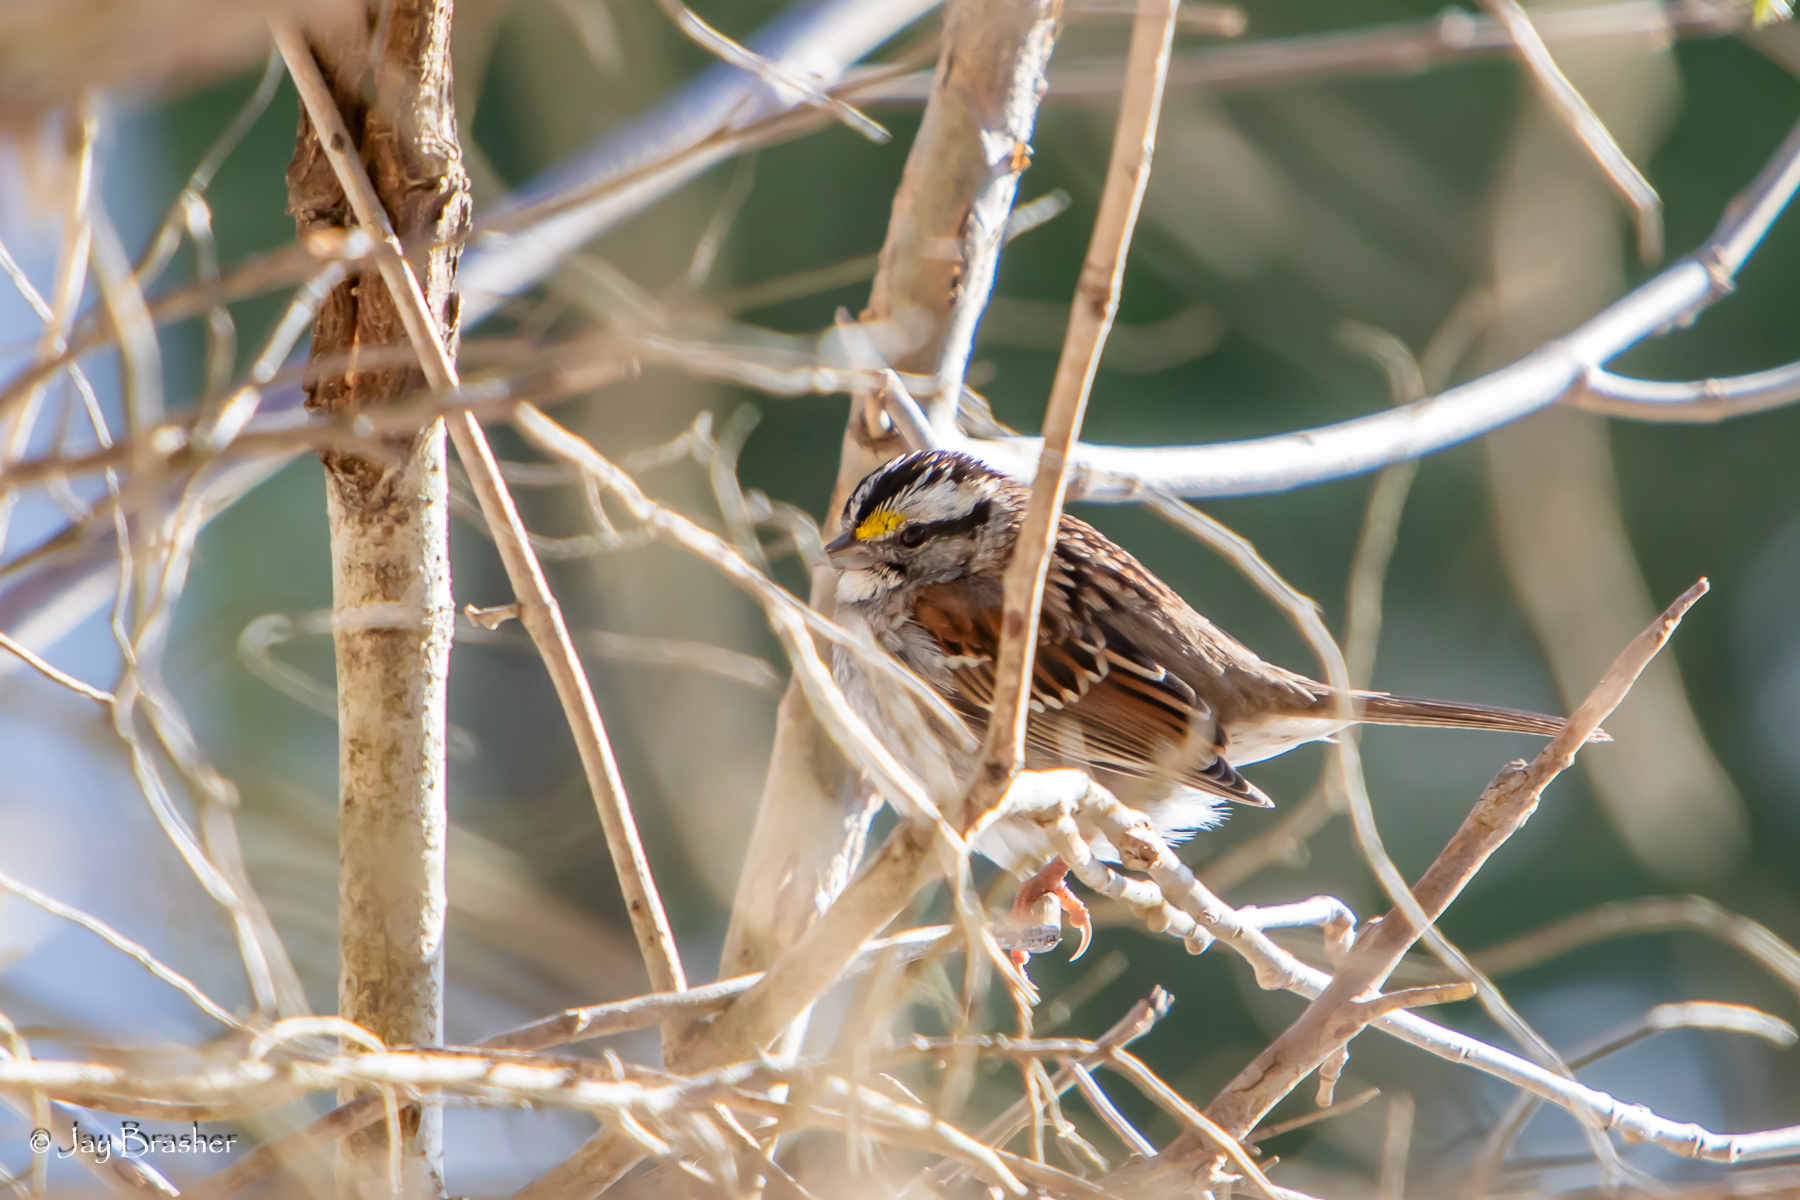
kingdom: Animalia
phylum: Chordata
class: Aves
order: Passeriformes
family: Passerellidae
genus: Zonotrichia
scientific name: Zonotrichia albicollis
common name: White-throated sparrow
